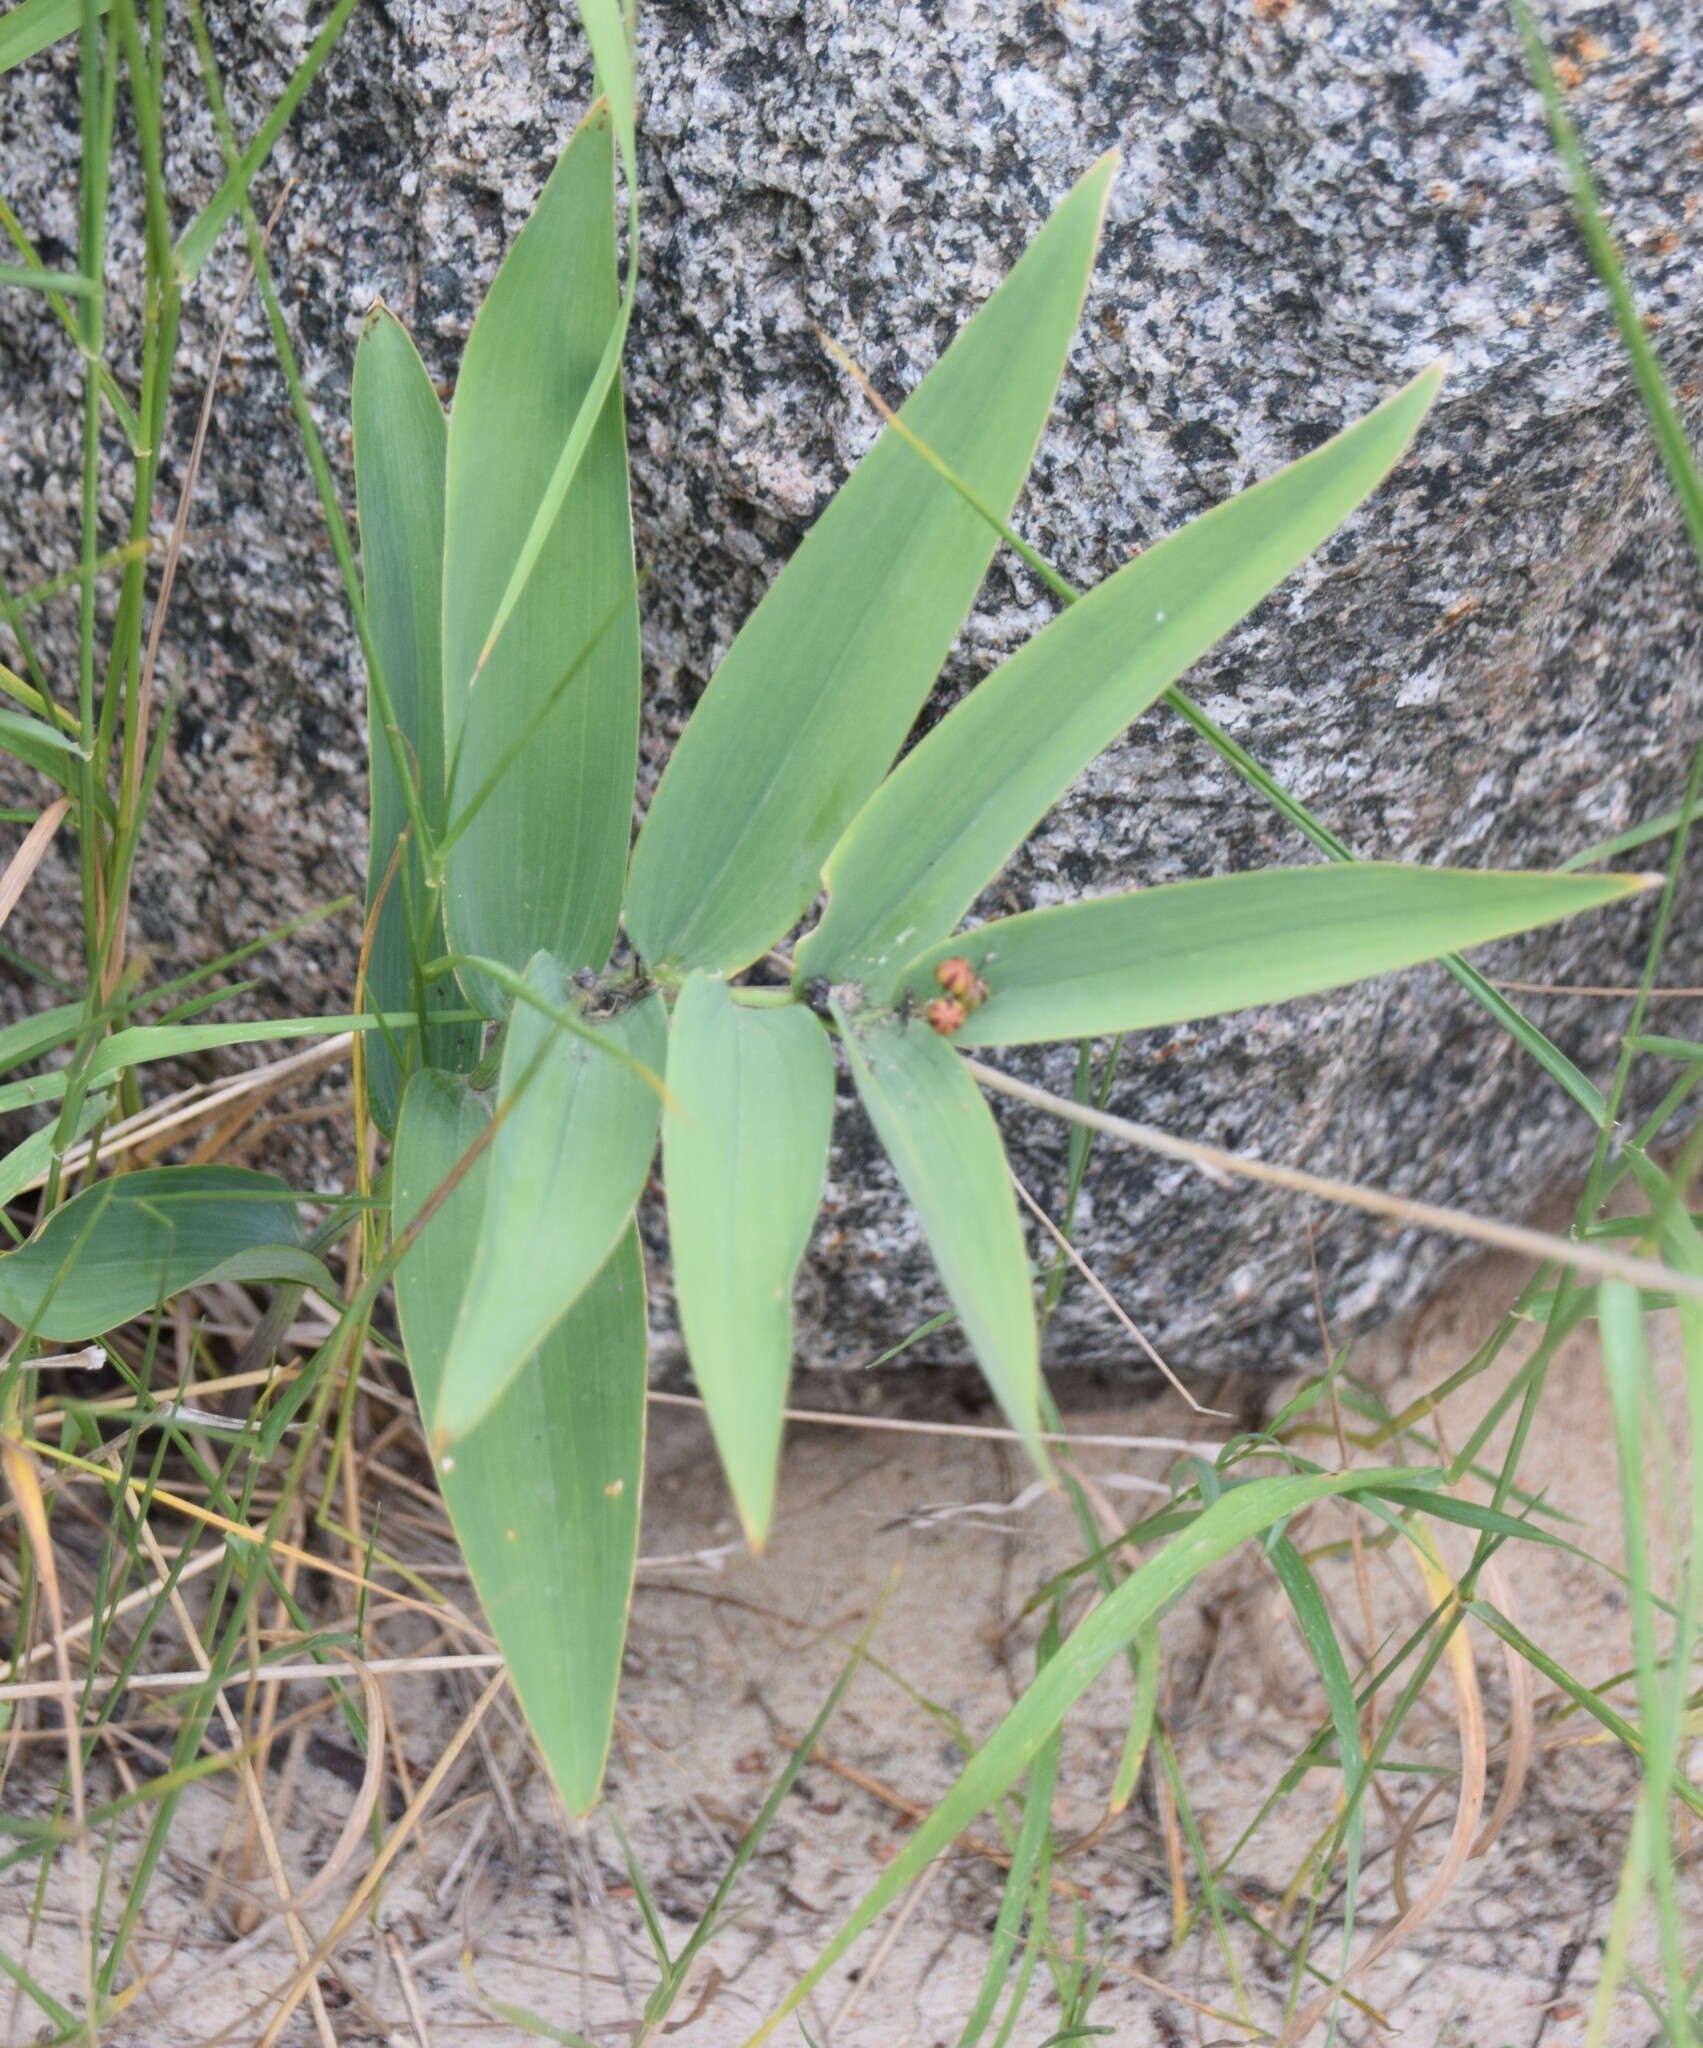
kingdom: Plantae
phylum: Tracheophyta
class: Liliopsida
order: Asparagales
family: Asparagaceae
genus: Maianthemum
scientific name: Maianthemum stellatum
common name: Little false solomon's seal
